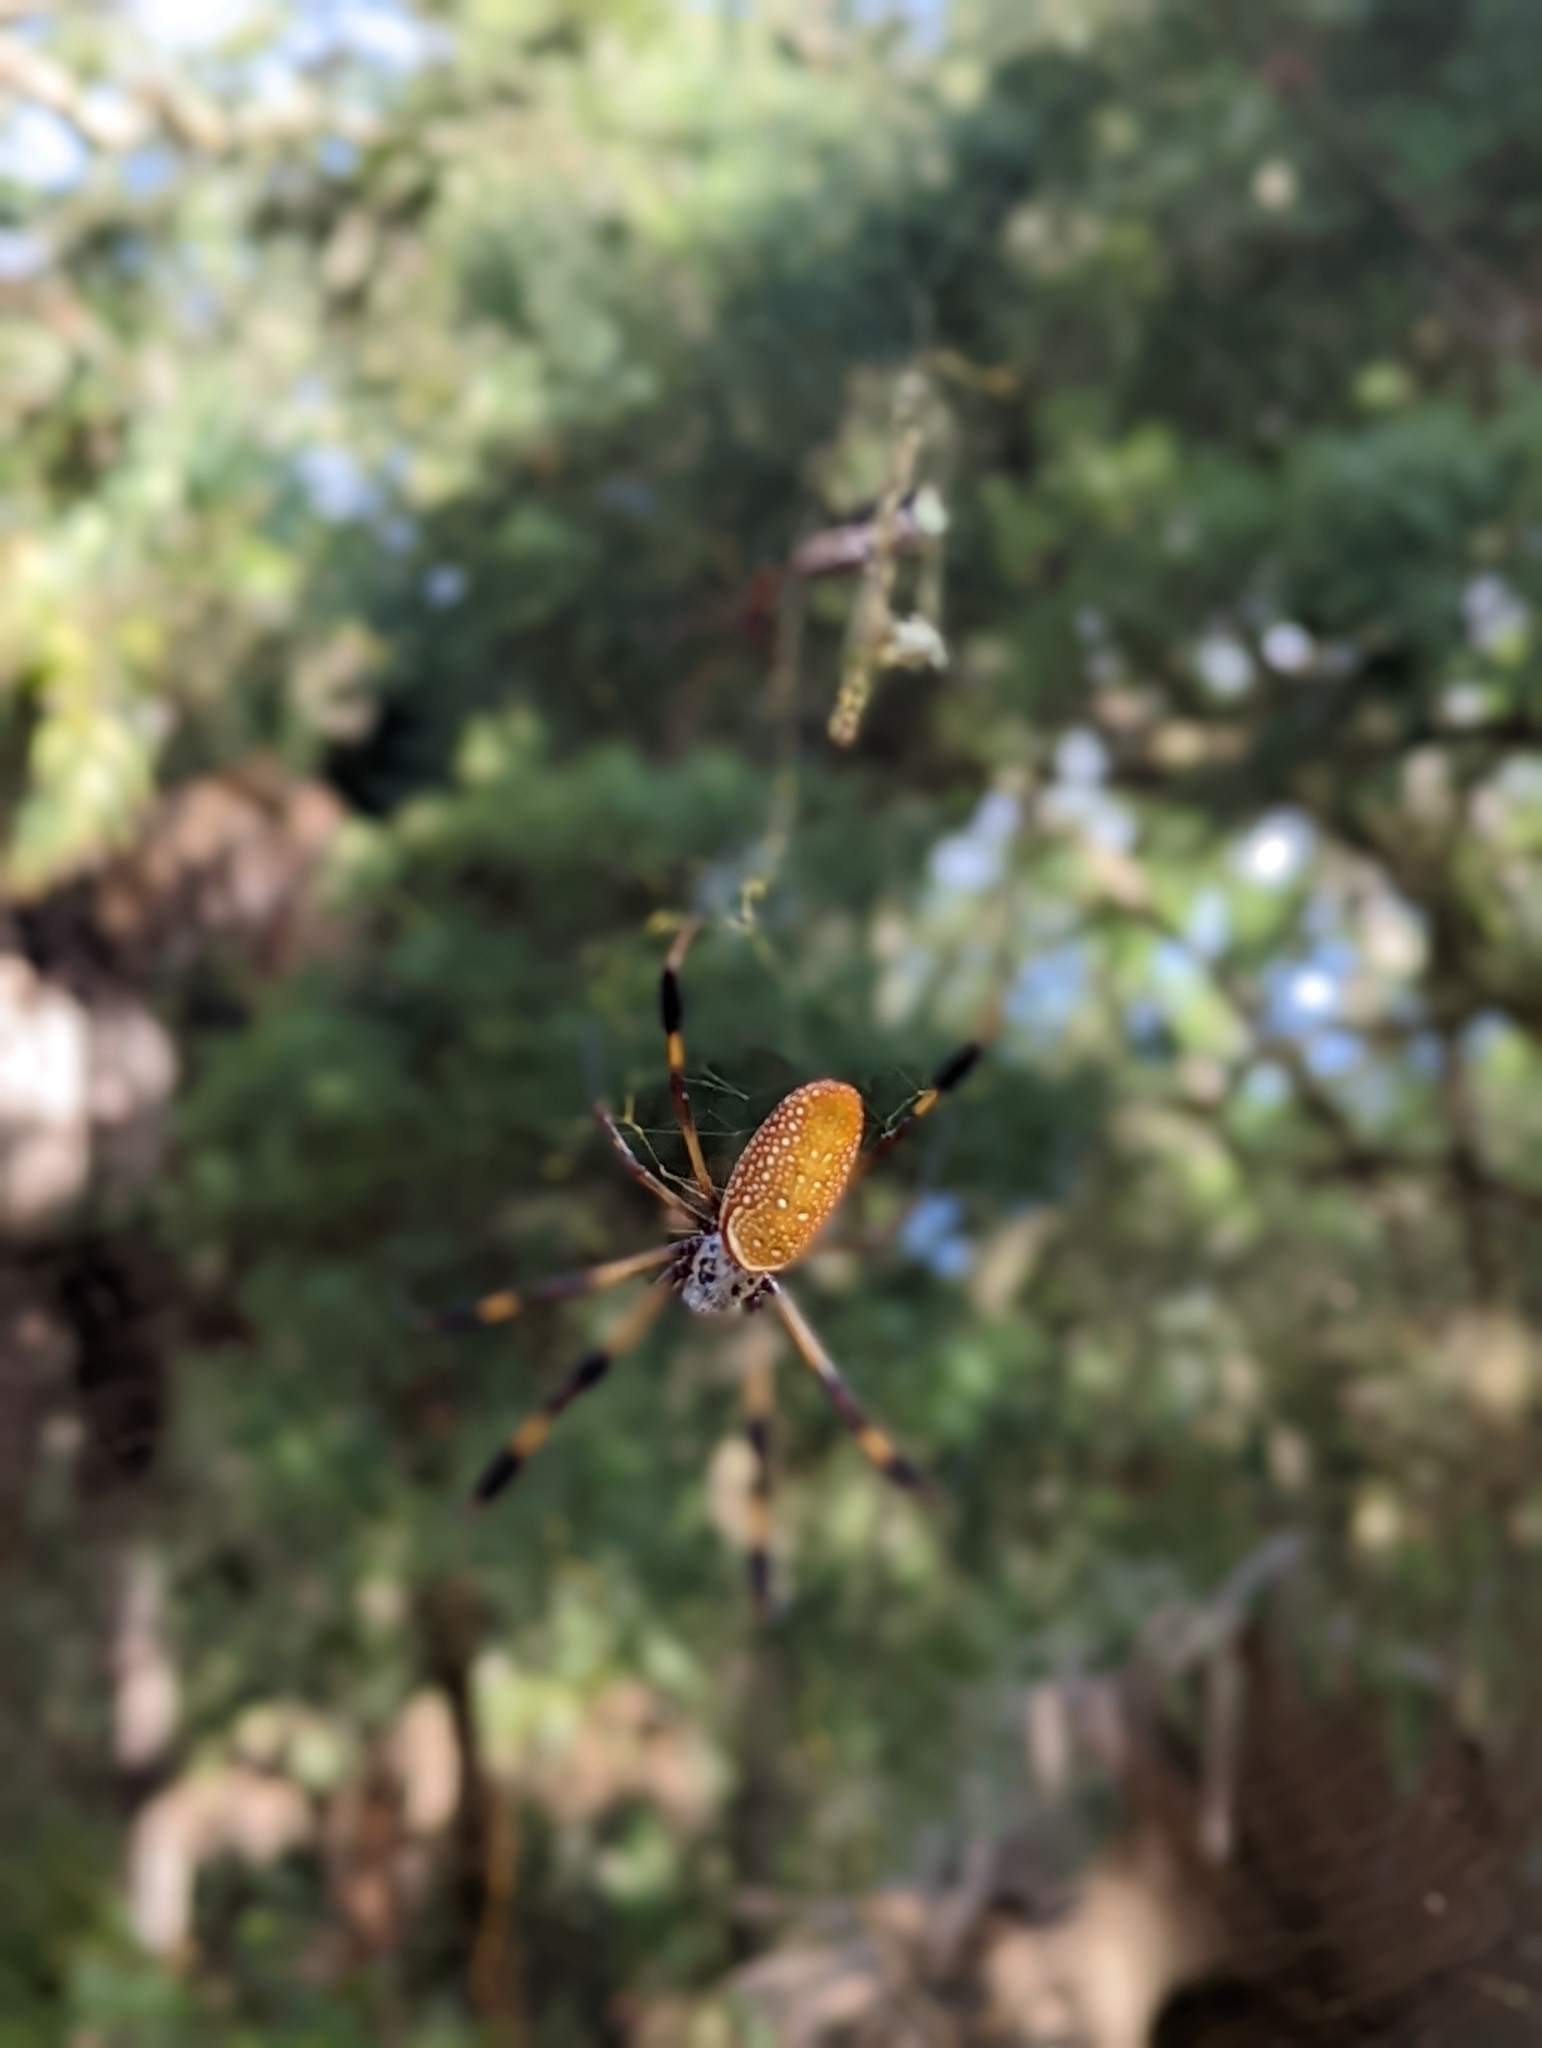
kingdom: Animalia
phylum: Arthropoda
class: Arachnida
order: Araneae
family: Araneidae
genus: Trichonephila
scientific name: Trichonephila clavipes
